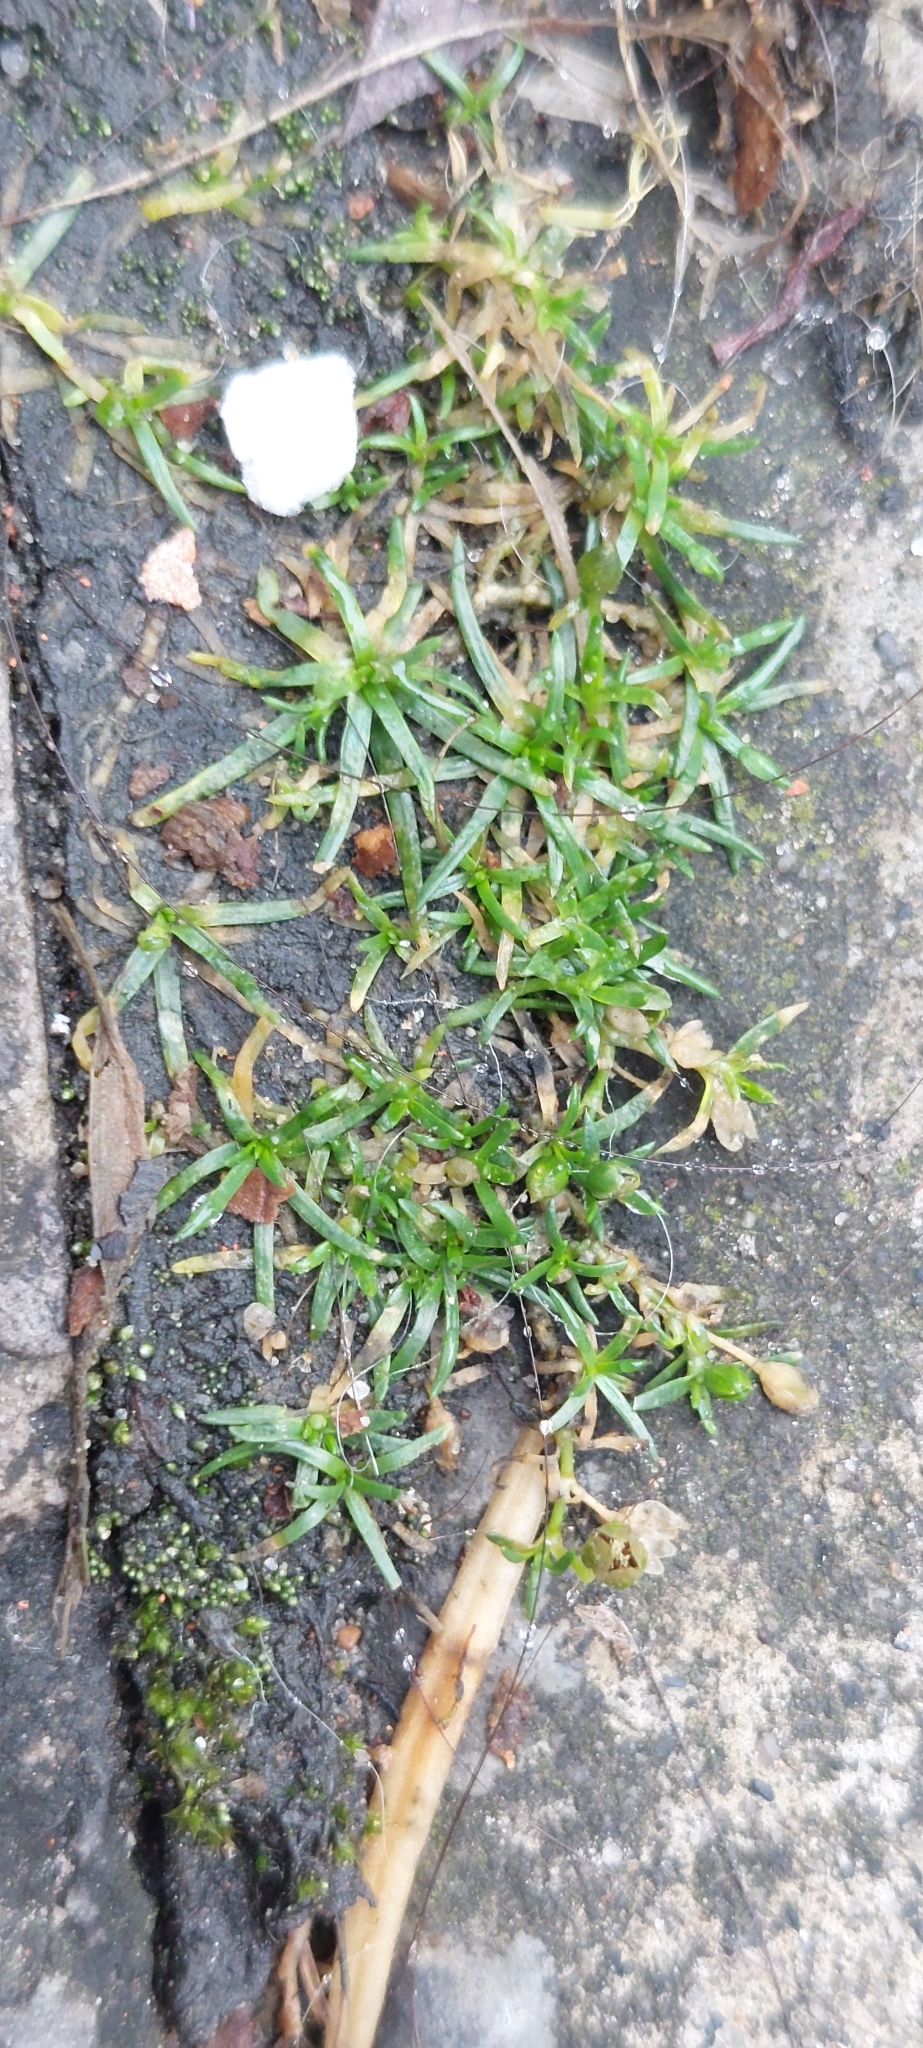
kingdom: Plantae
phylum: Tracheophyta
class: Magnoliopsida
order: Caryophyllales
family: Caryophyllaceae
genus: Sagina
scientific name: Sagina procumbens
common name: Procumbent pearlwort
